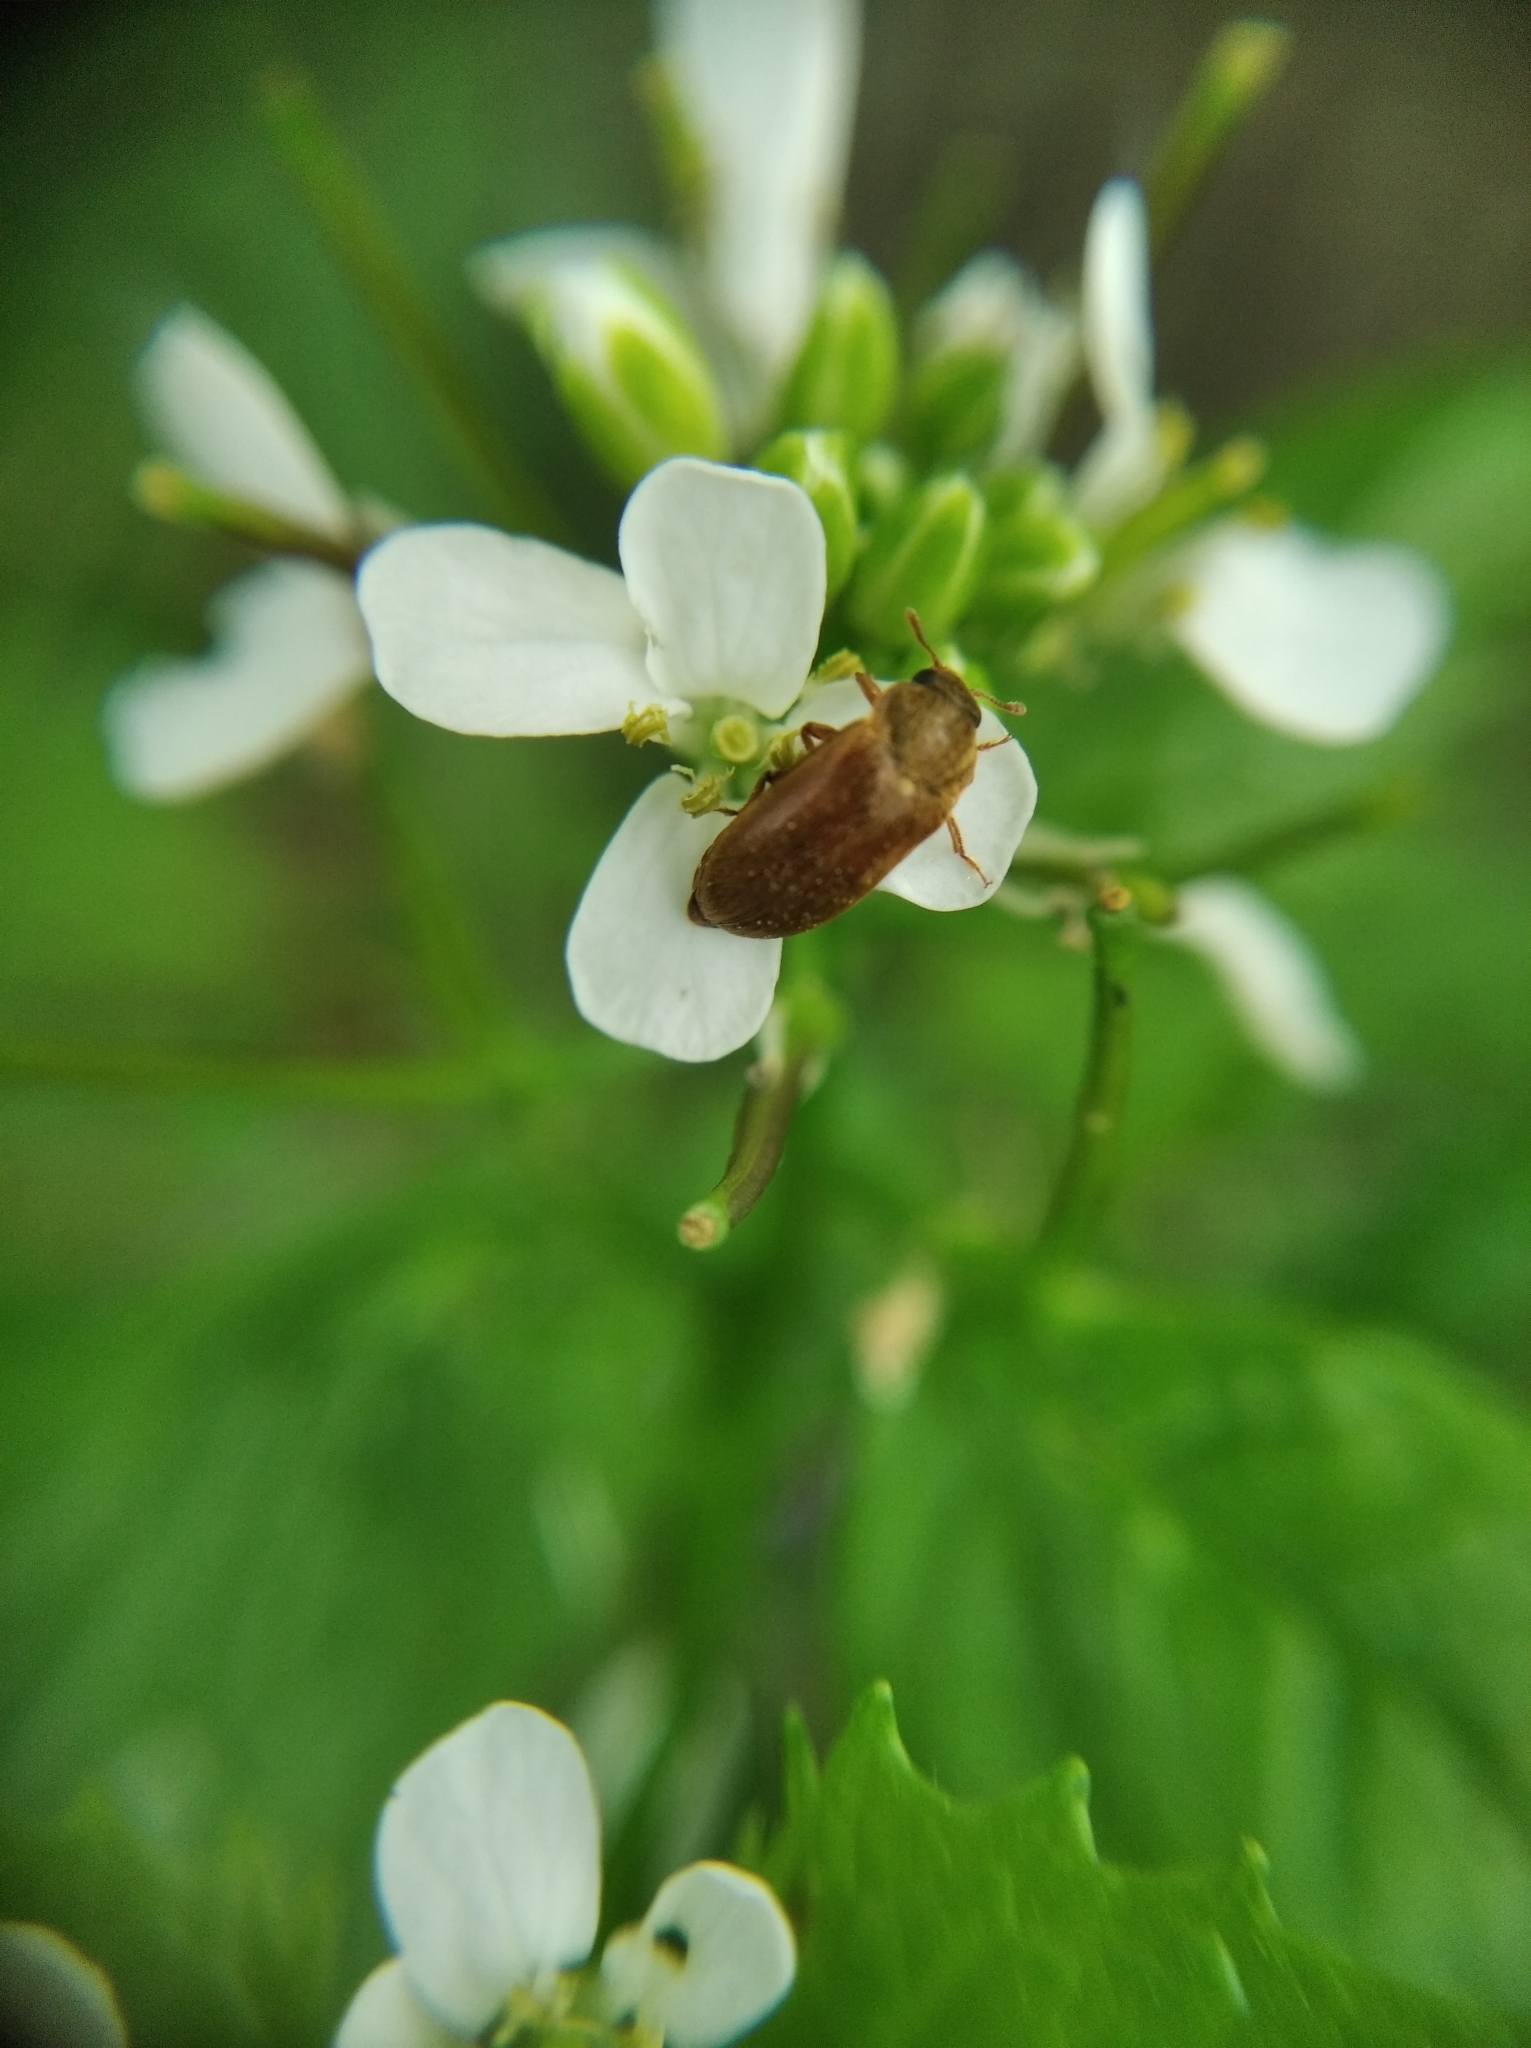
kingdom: Animalia
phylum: Arthropoda
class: Insecta
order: Coleoptera
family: Byturidae
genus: Byturus
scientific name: Byturus ochraceus
